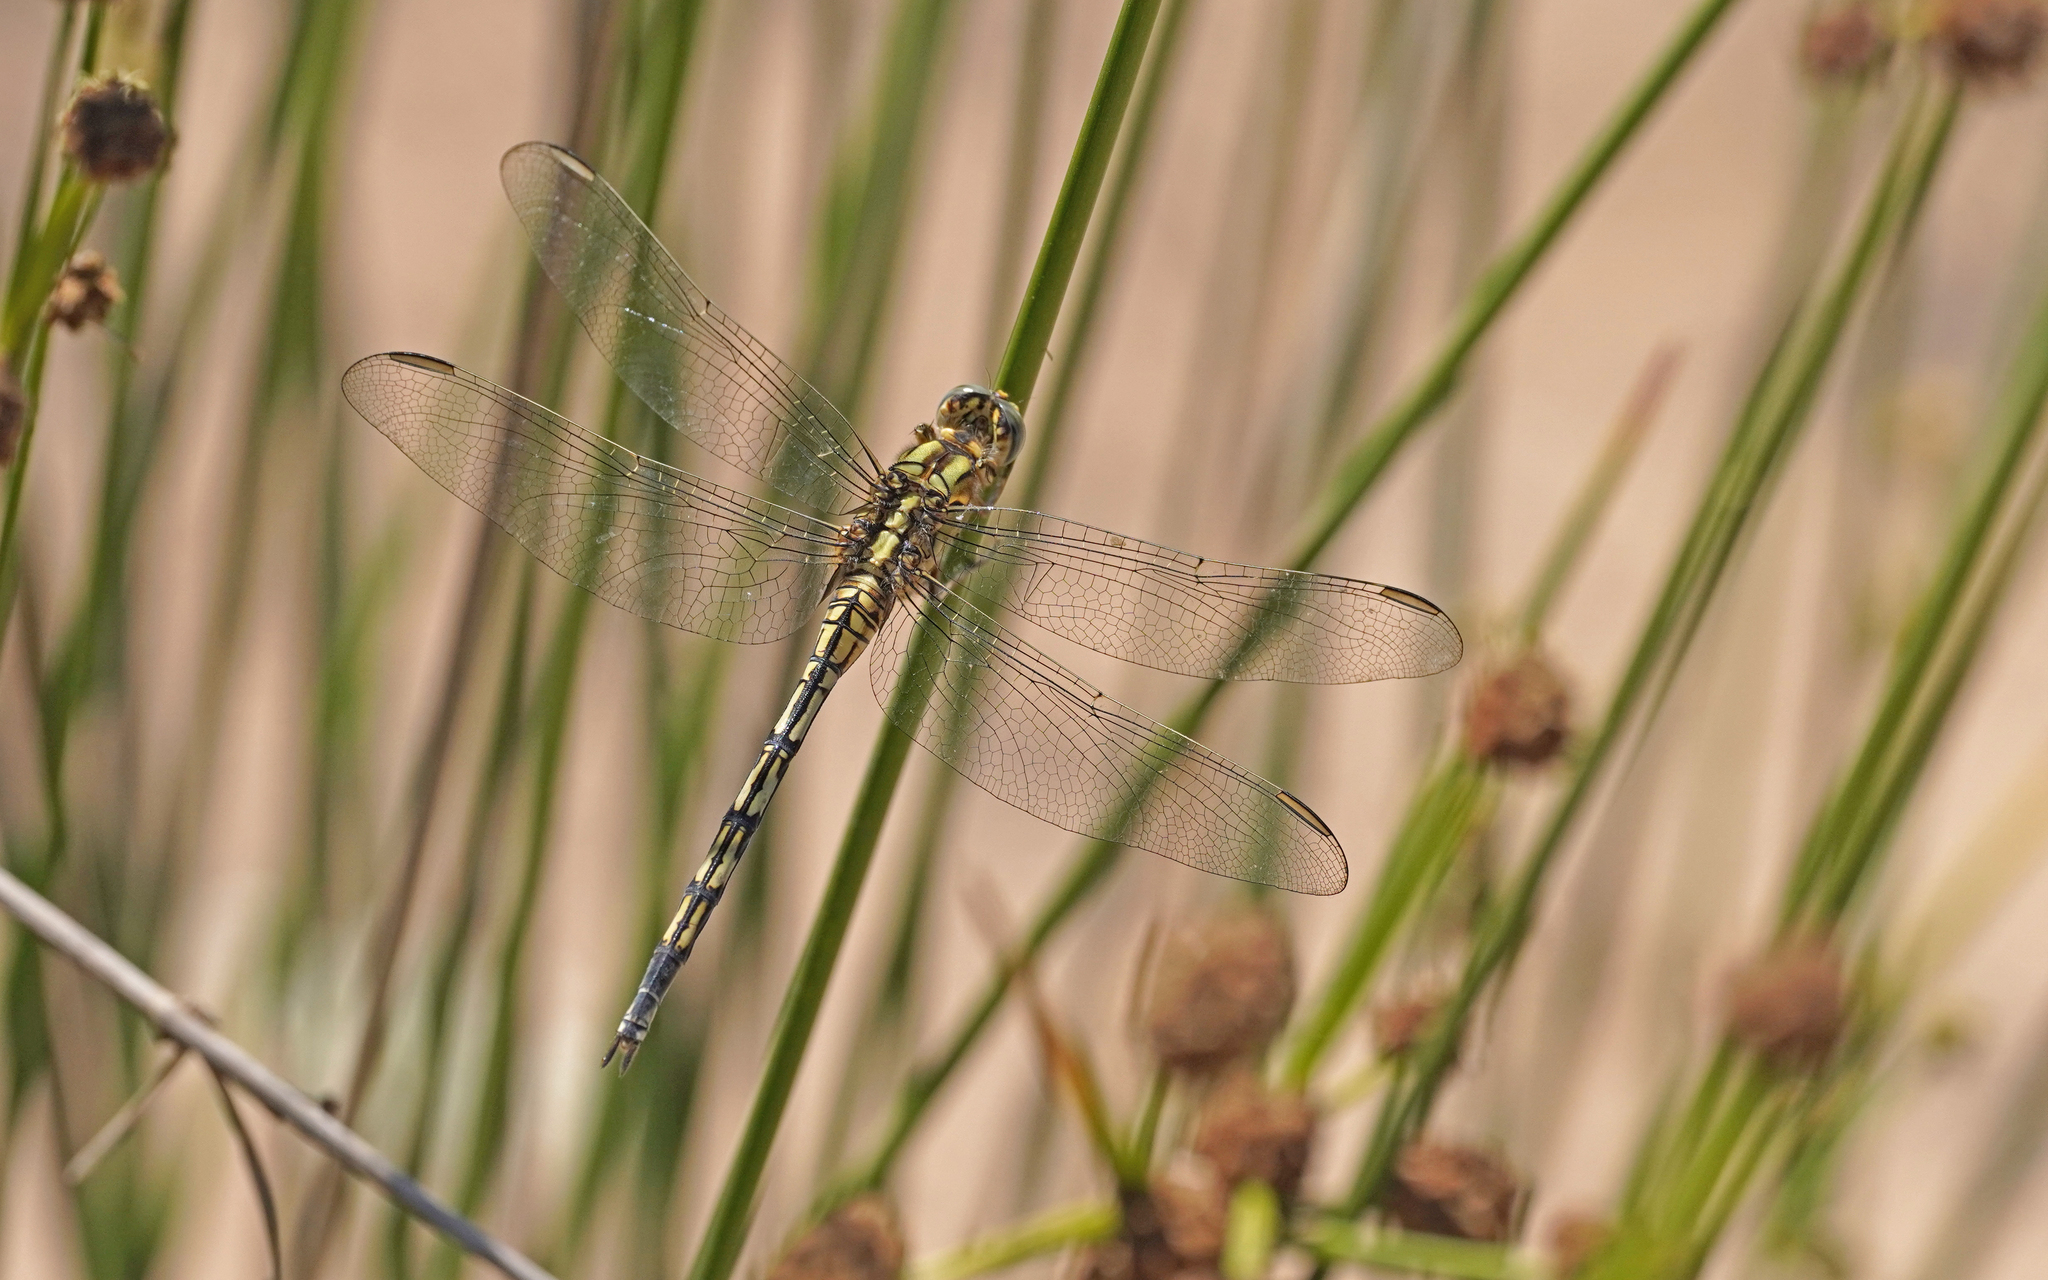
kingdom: Animalia
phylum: Arthropoda
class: Insecta
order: Odonata
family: Libellulidae
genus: Orthetrum
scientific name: Orthetrum trinacria
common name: Long skimmer
